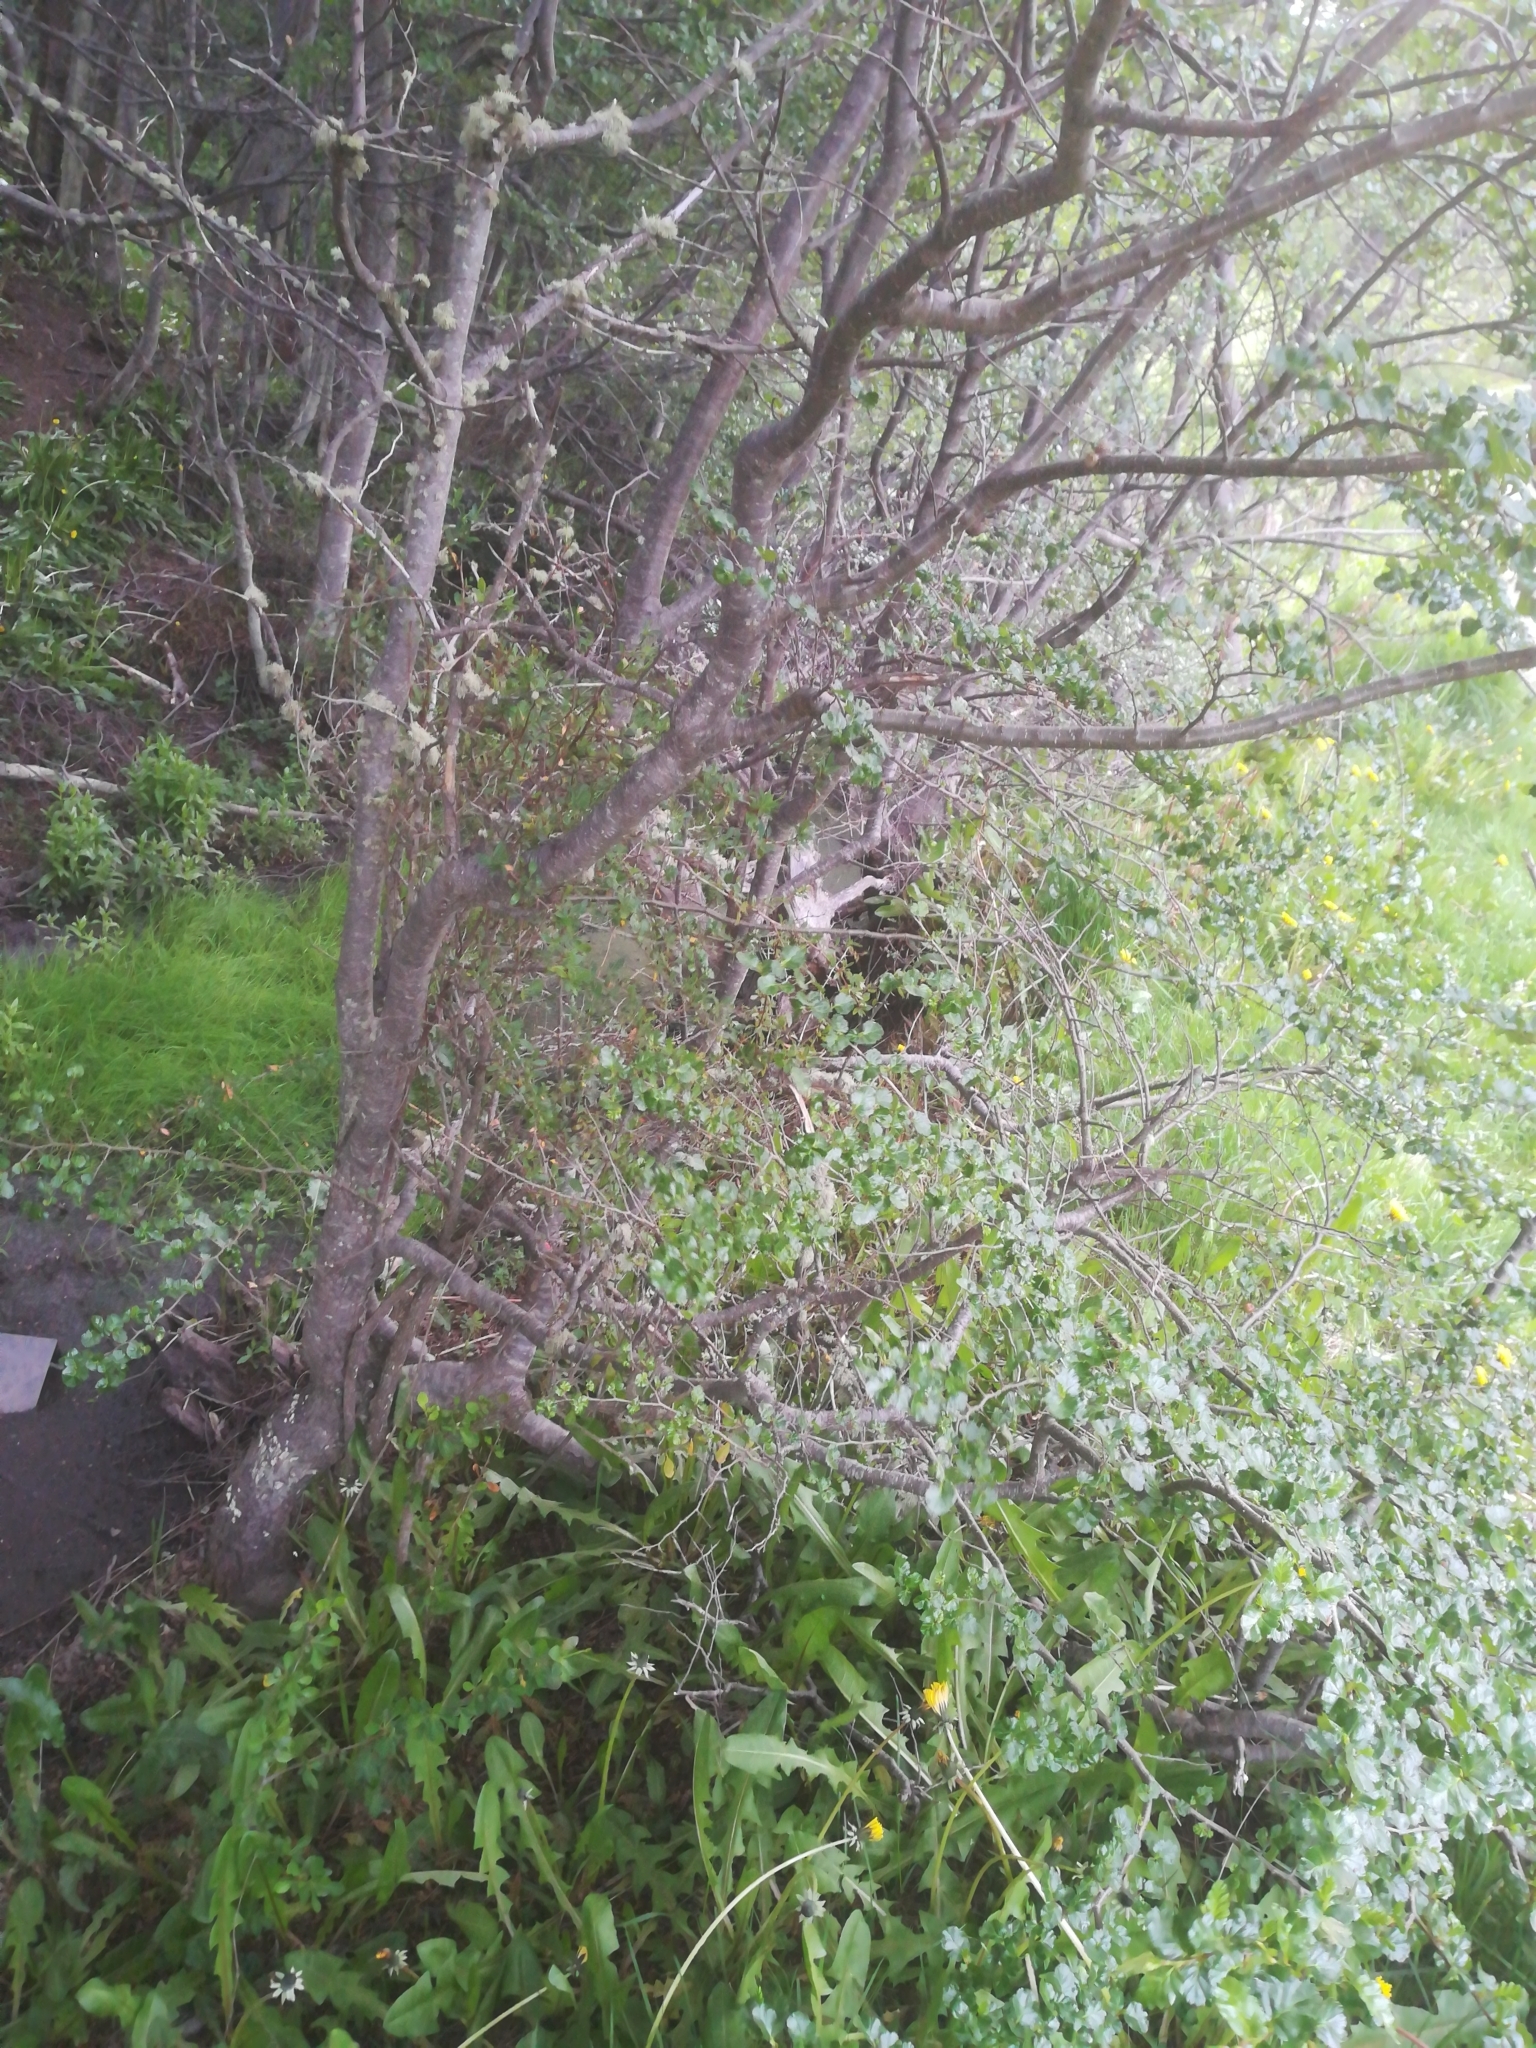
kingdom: Plantae
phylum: Tracheophyta
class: Magnoliopsida
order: Fagales
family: Nothofagaceae
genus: Nothofagus
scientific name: Nothofagus antarctica
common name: Antarctic beech
